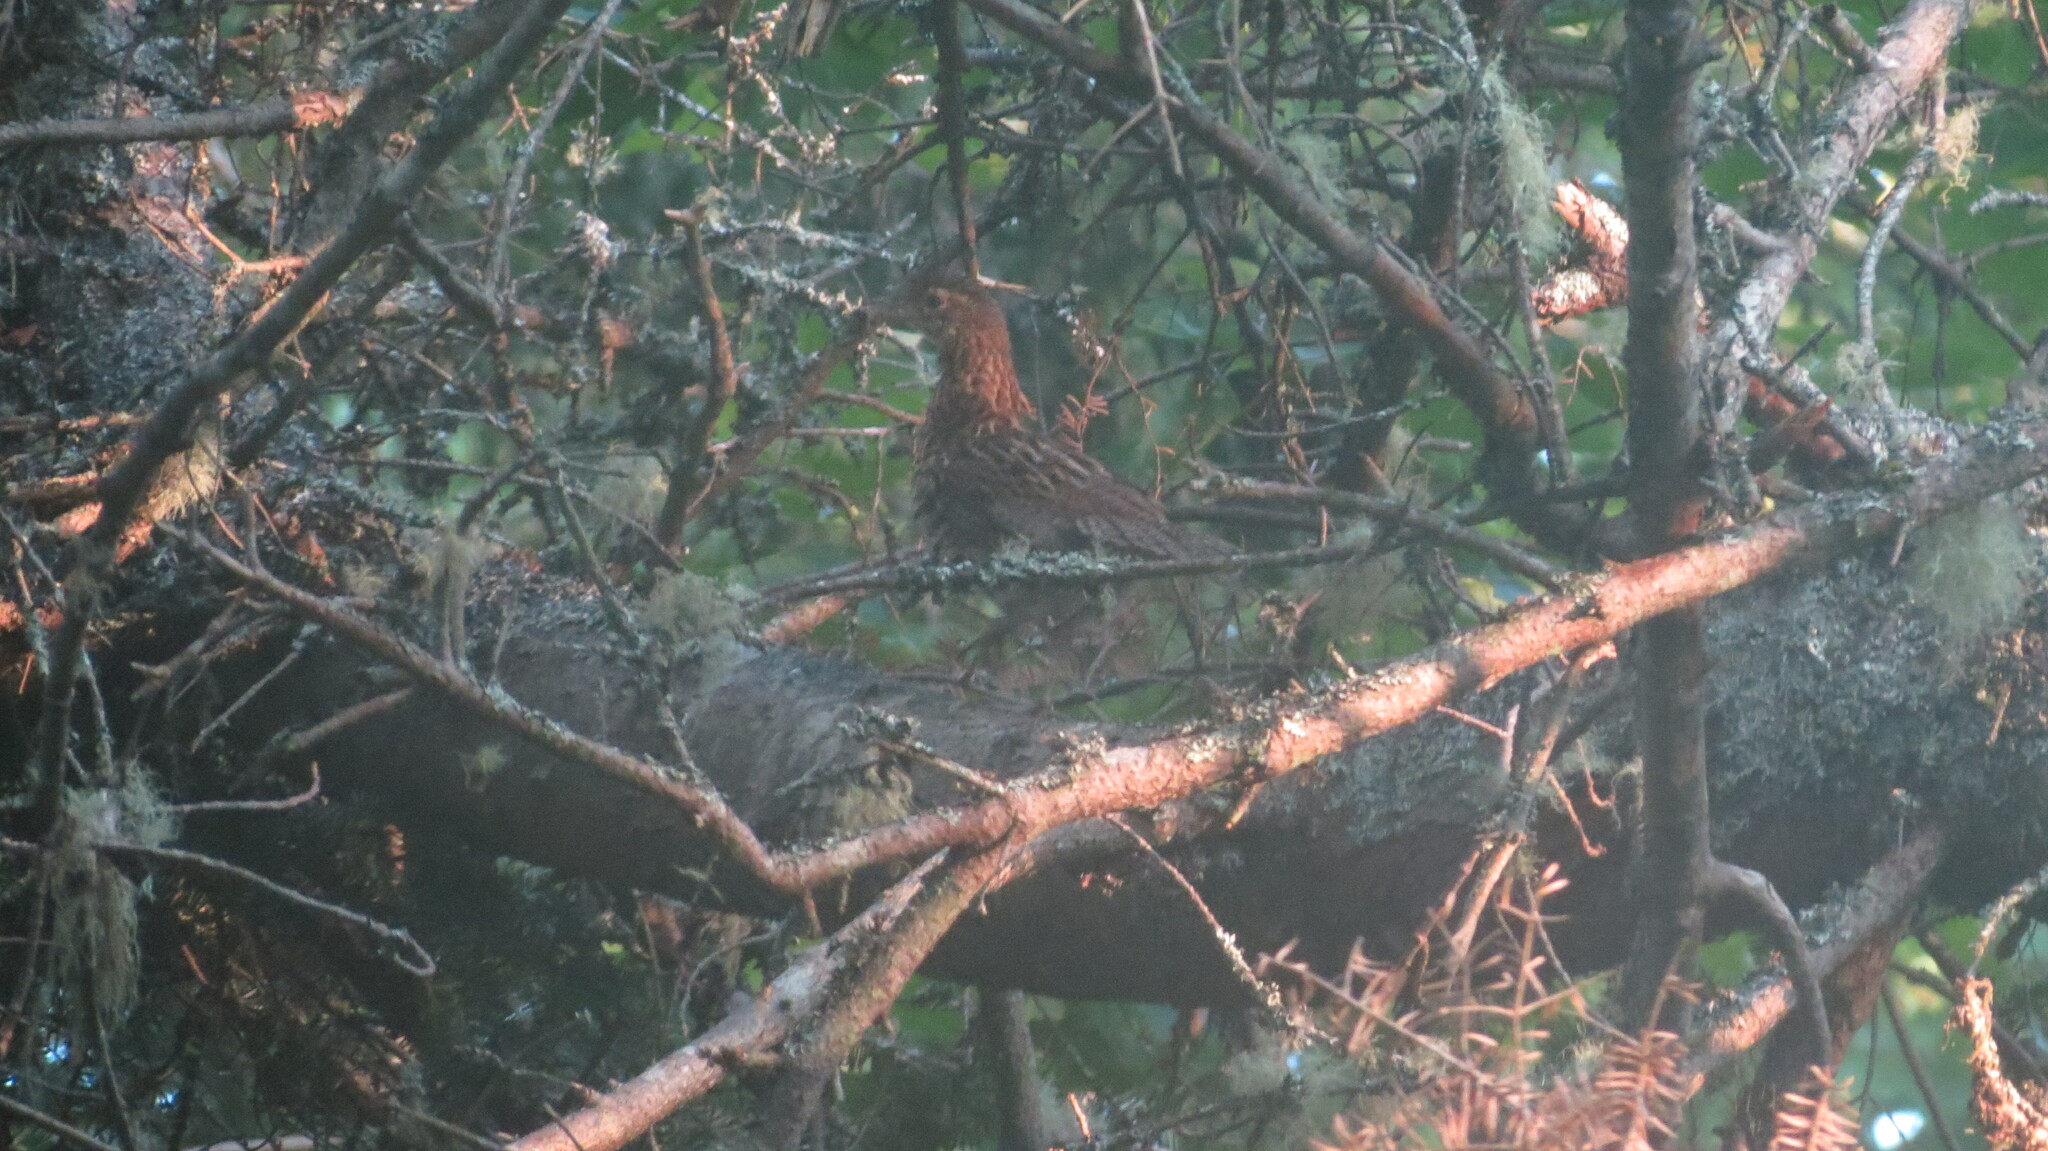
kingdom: Animalia
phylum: Chordata
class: Aves
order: Galliformes
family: Phasianidae
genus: Bonasa
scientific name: Bonasa umbellus
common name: Ruffed grouse
